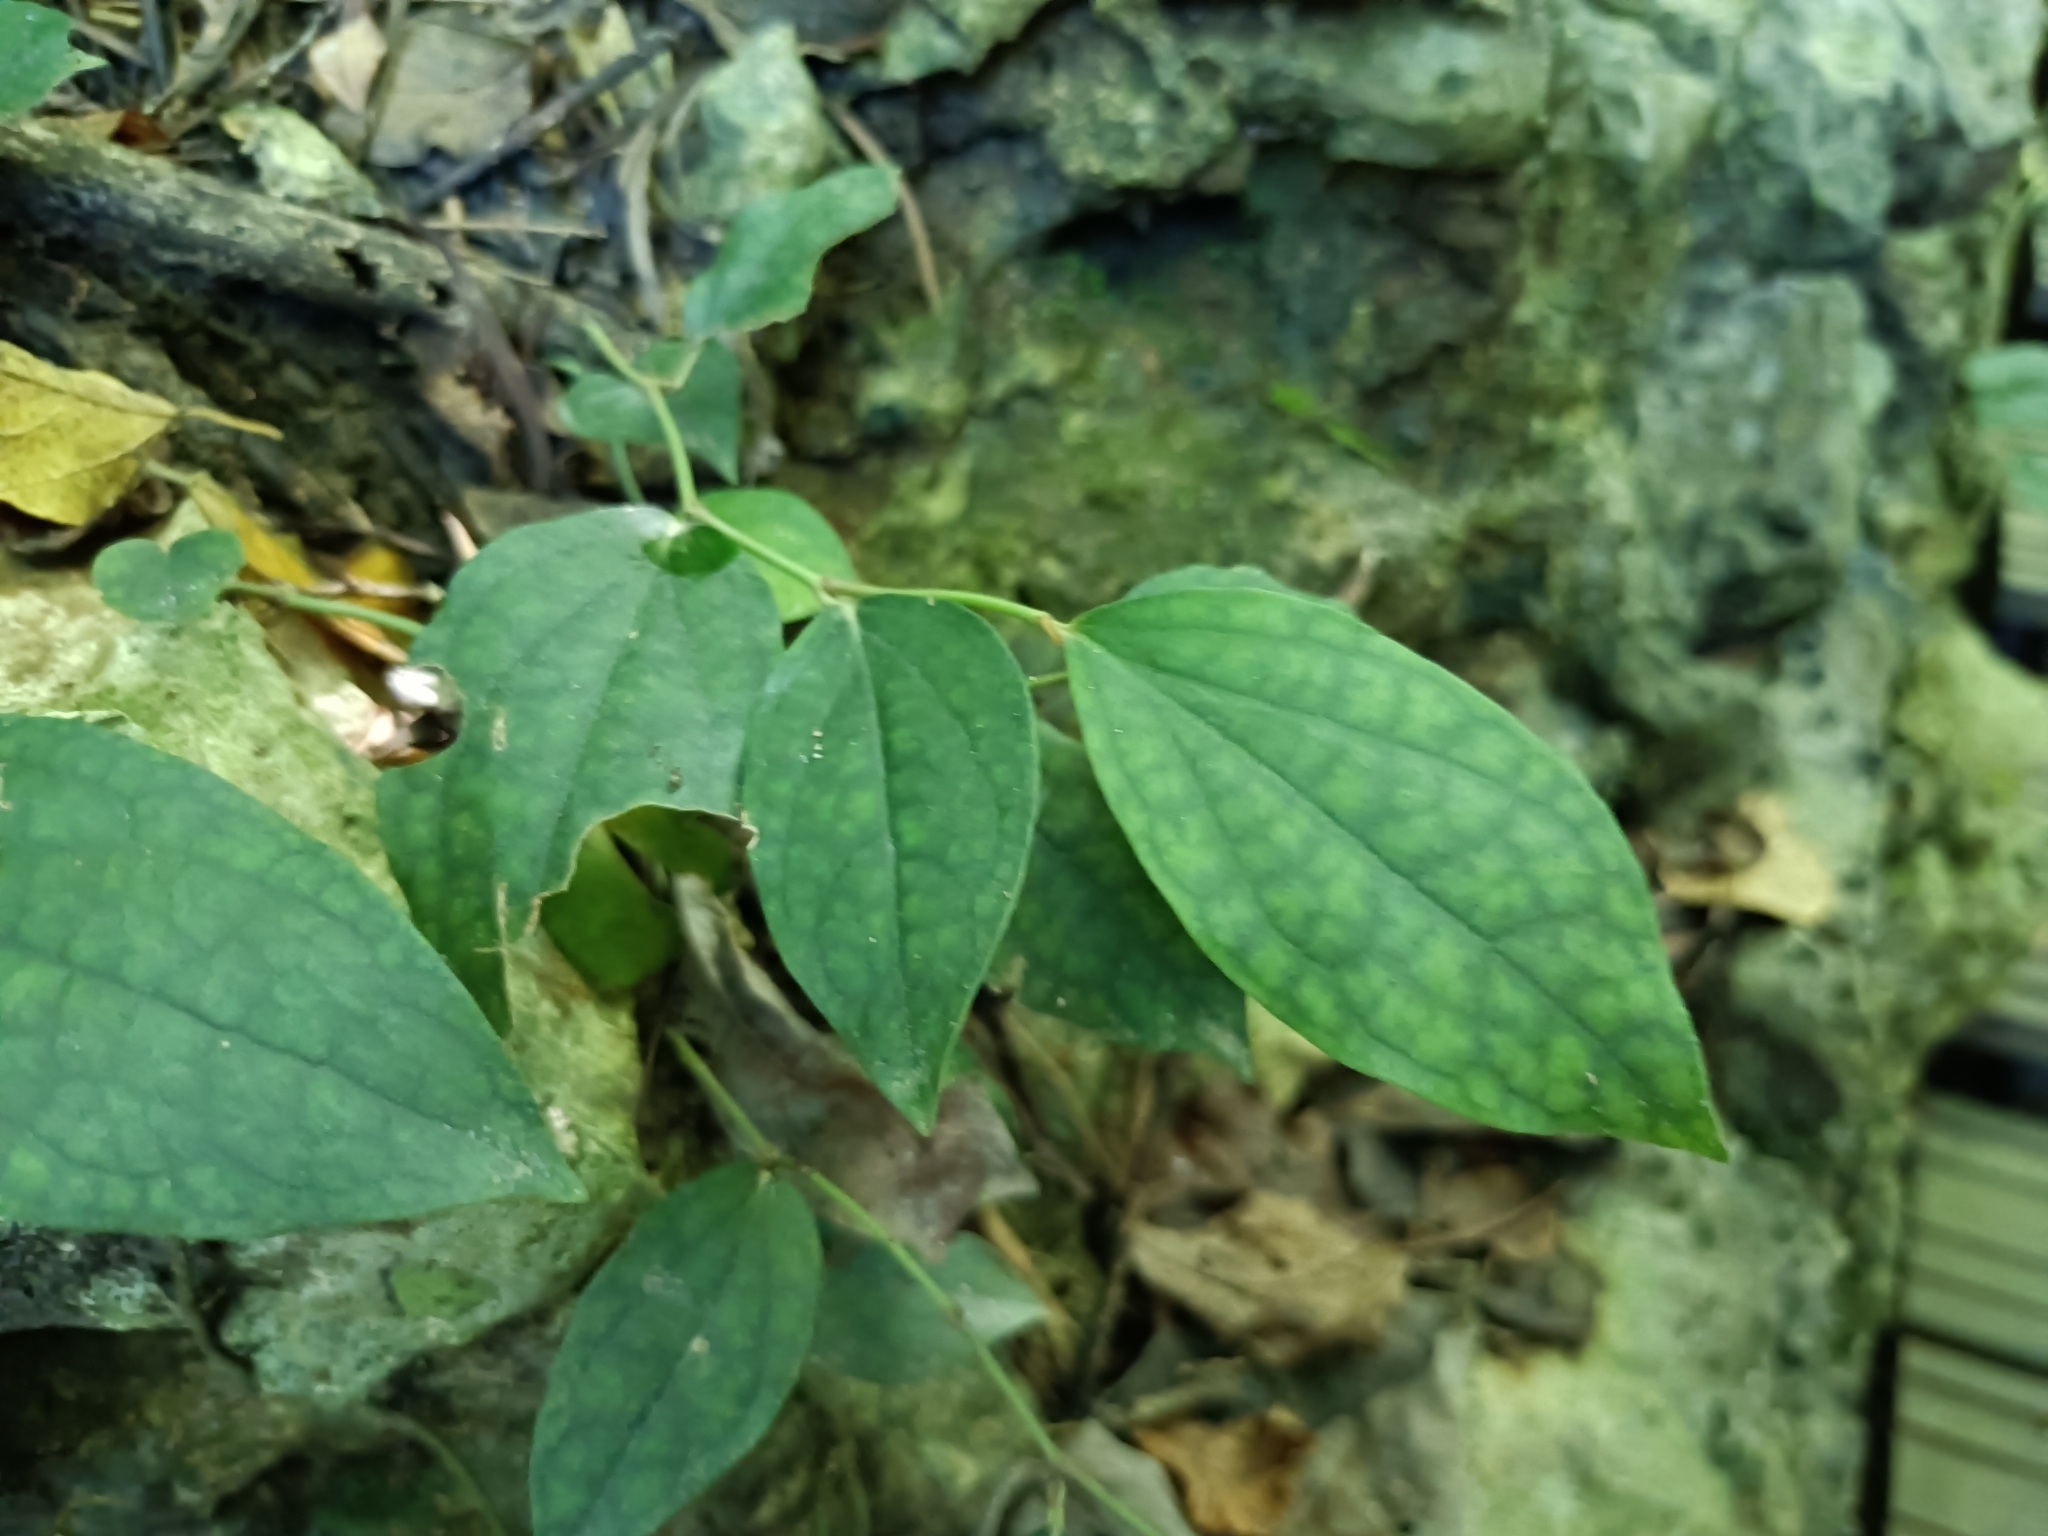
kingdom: Plantae
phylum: Tracheophyta
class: Magnoliopsida
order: Piperales
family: Piperaceae
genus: Piper
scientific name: Piper kadsura
